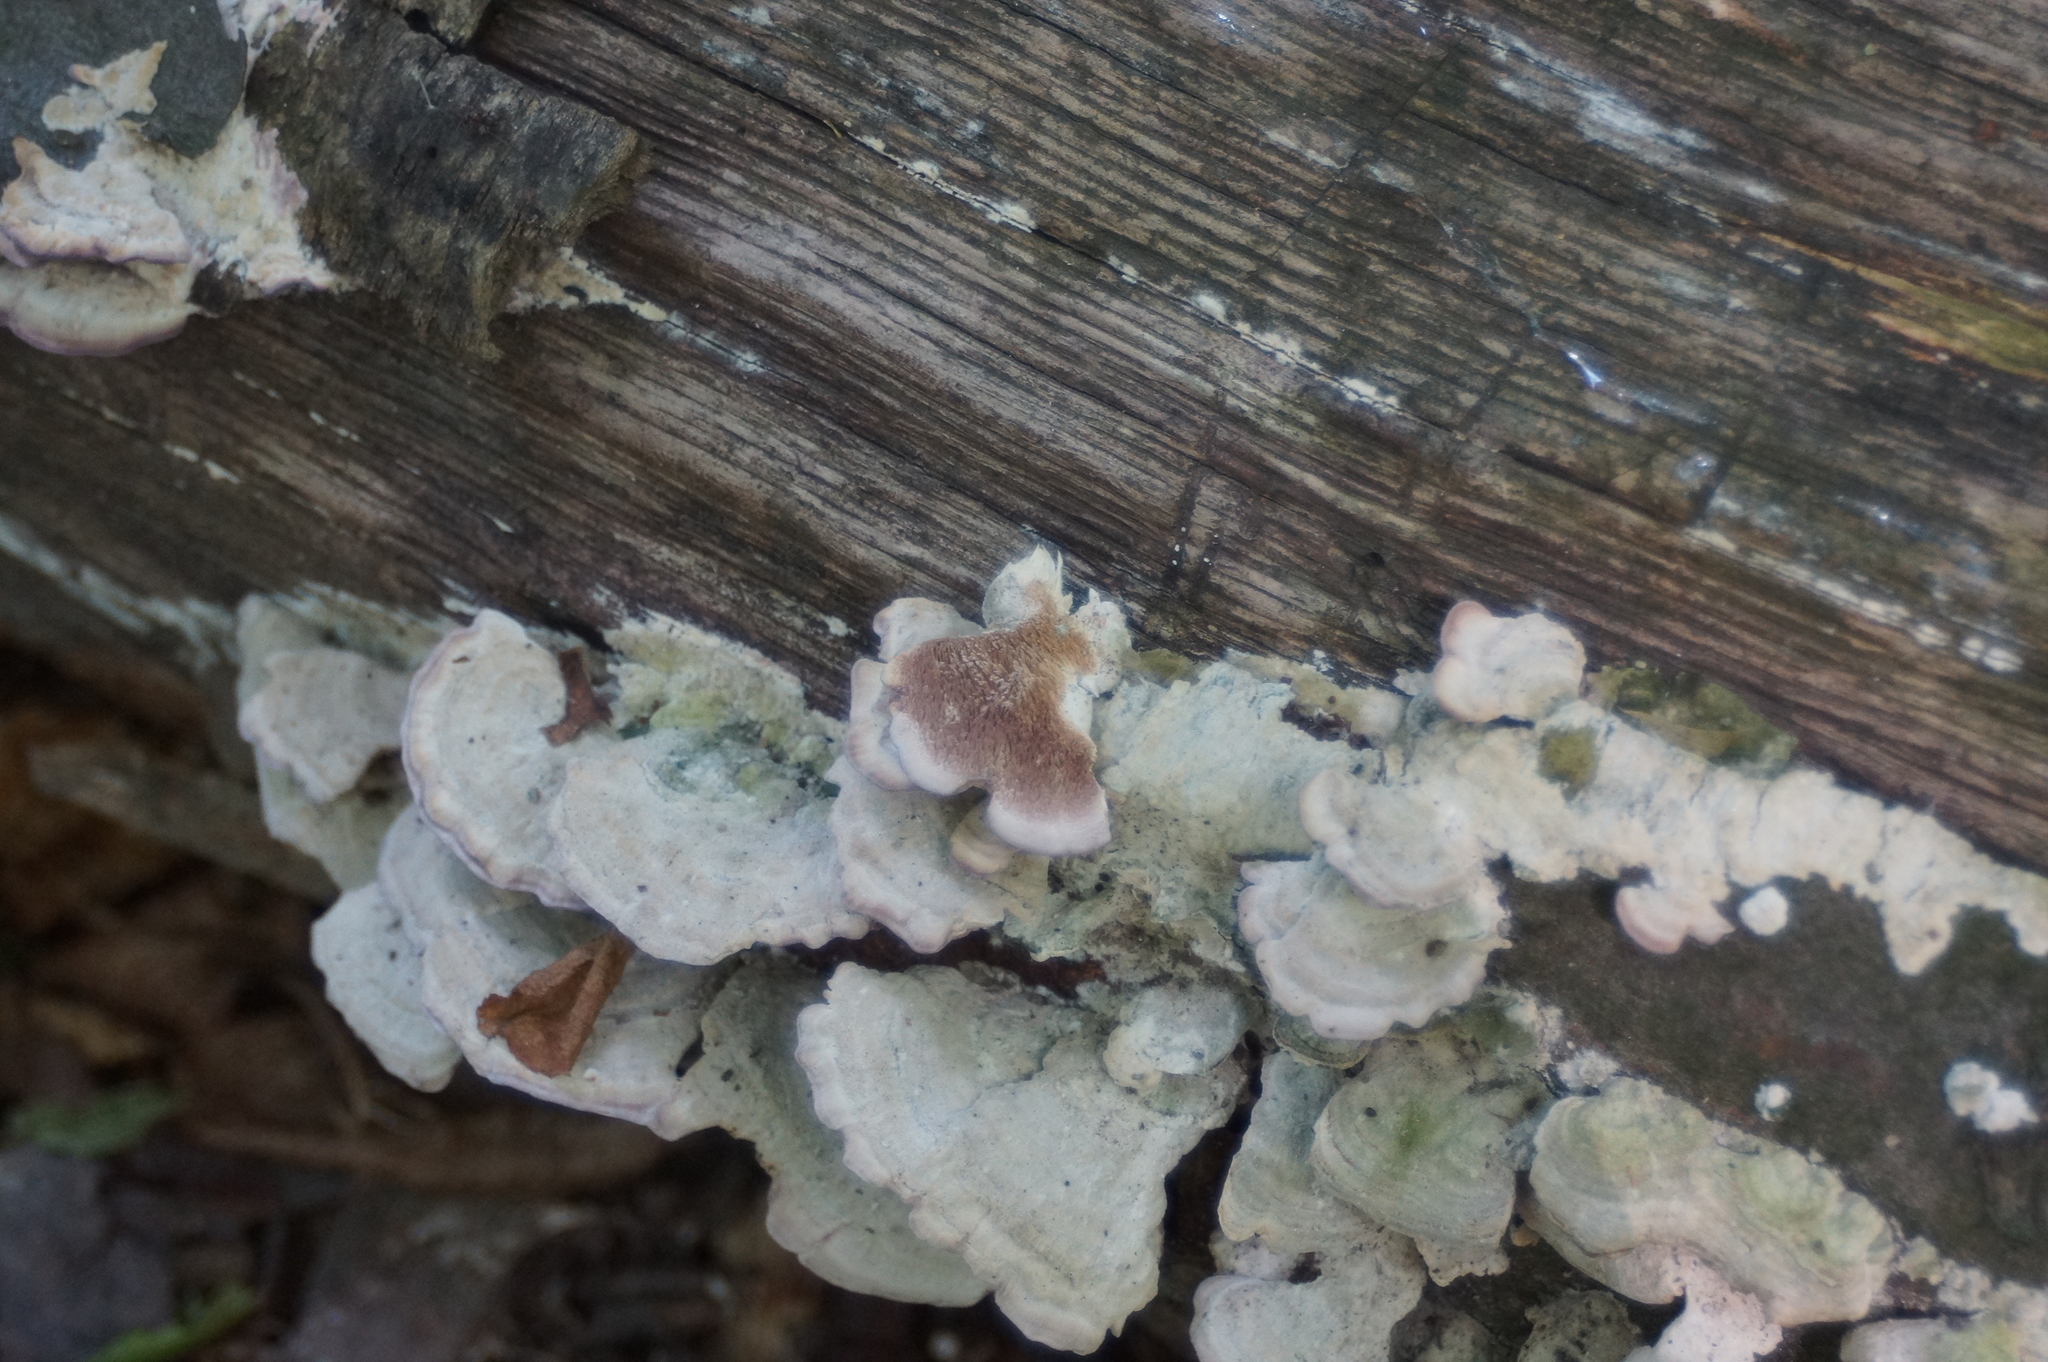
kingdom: Fungi
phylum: Basidiomycota
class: Agaricomycetes
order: Hymenochaetales
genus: Trichaptum
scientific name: Trichaptum biforme
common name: Violet-toothed polypore
